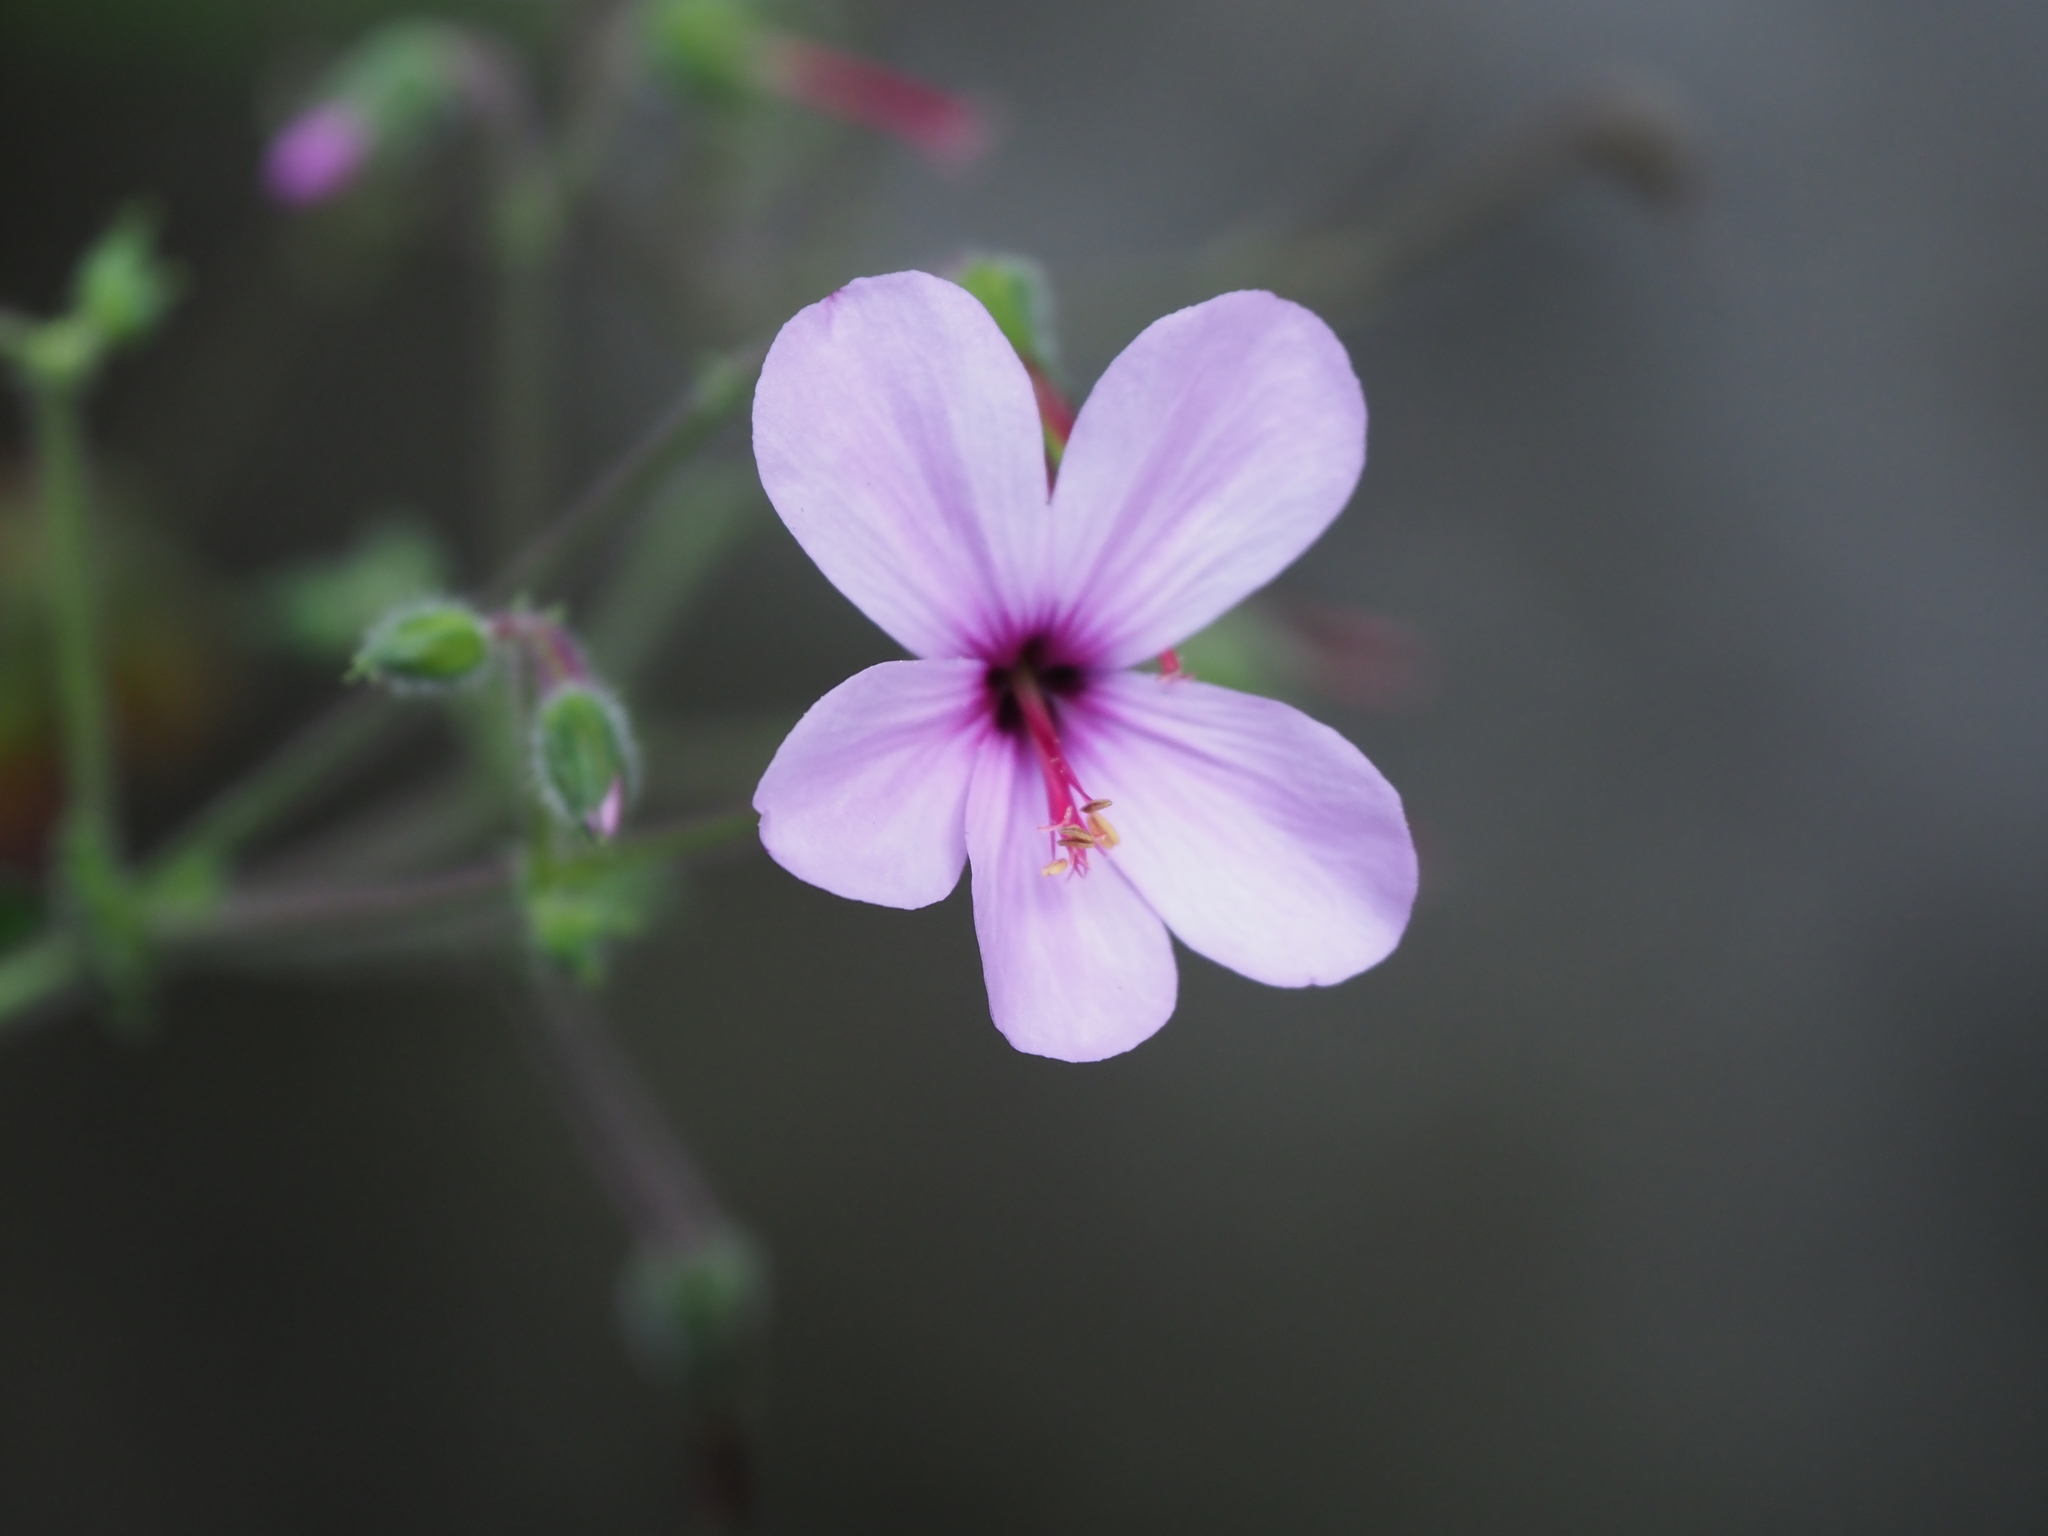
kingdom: Plantae
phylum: Tracheophyta
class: Magnoliopsida
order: Geraniales
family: Geraniaceae
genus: Geranium
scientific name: Geranium palmatum
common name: Canary island geranium
